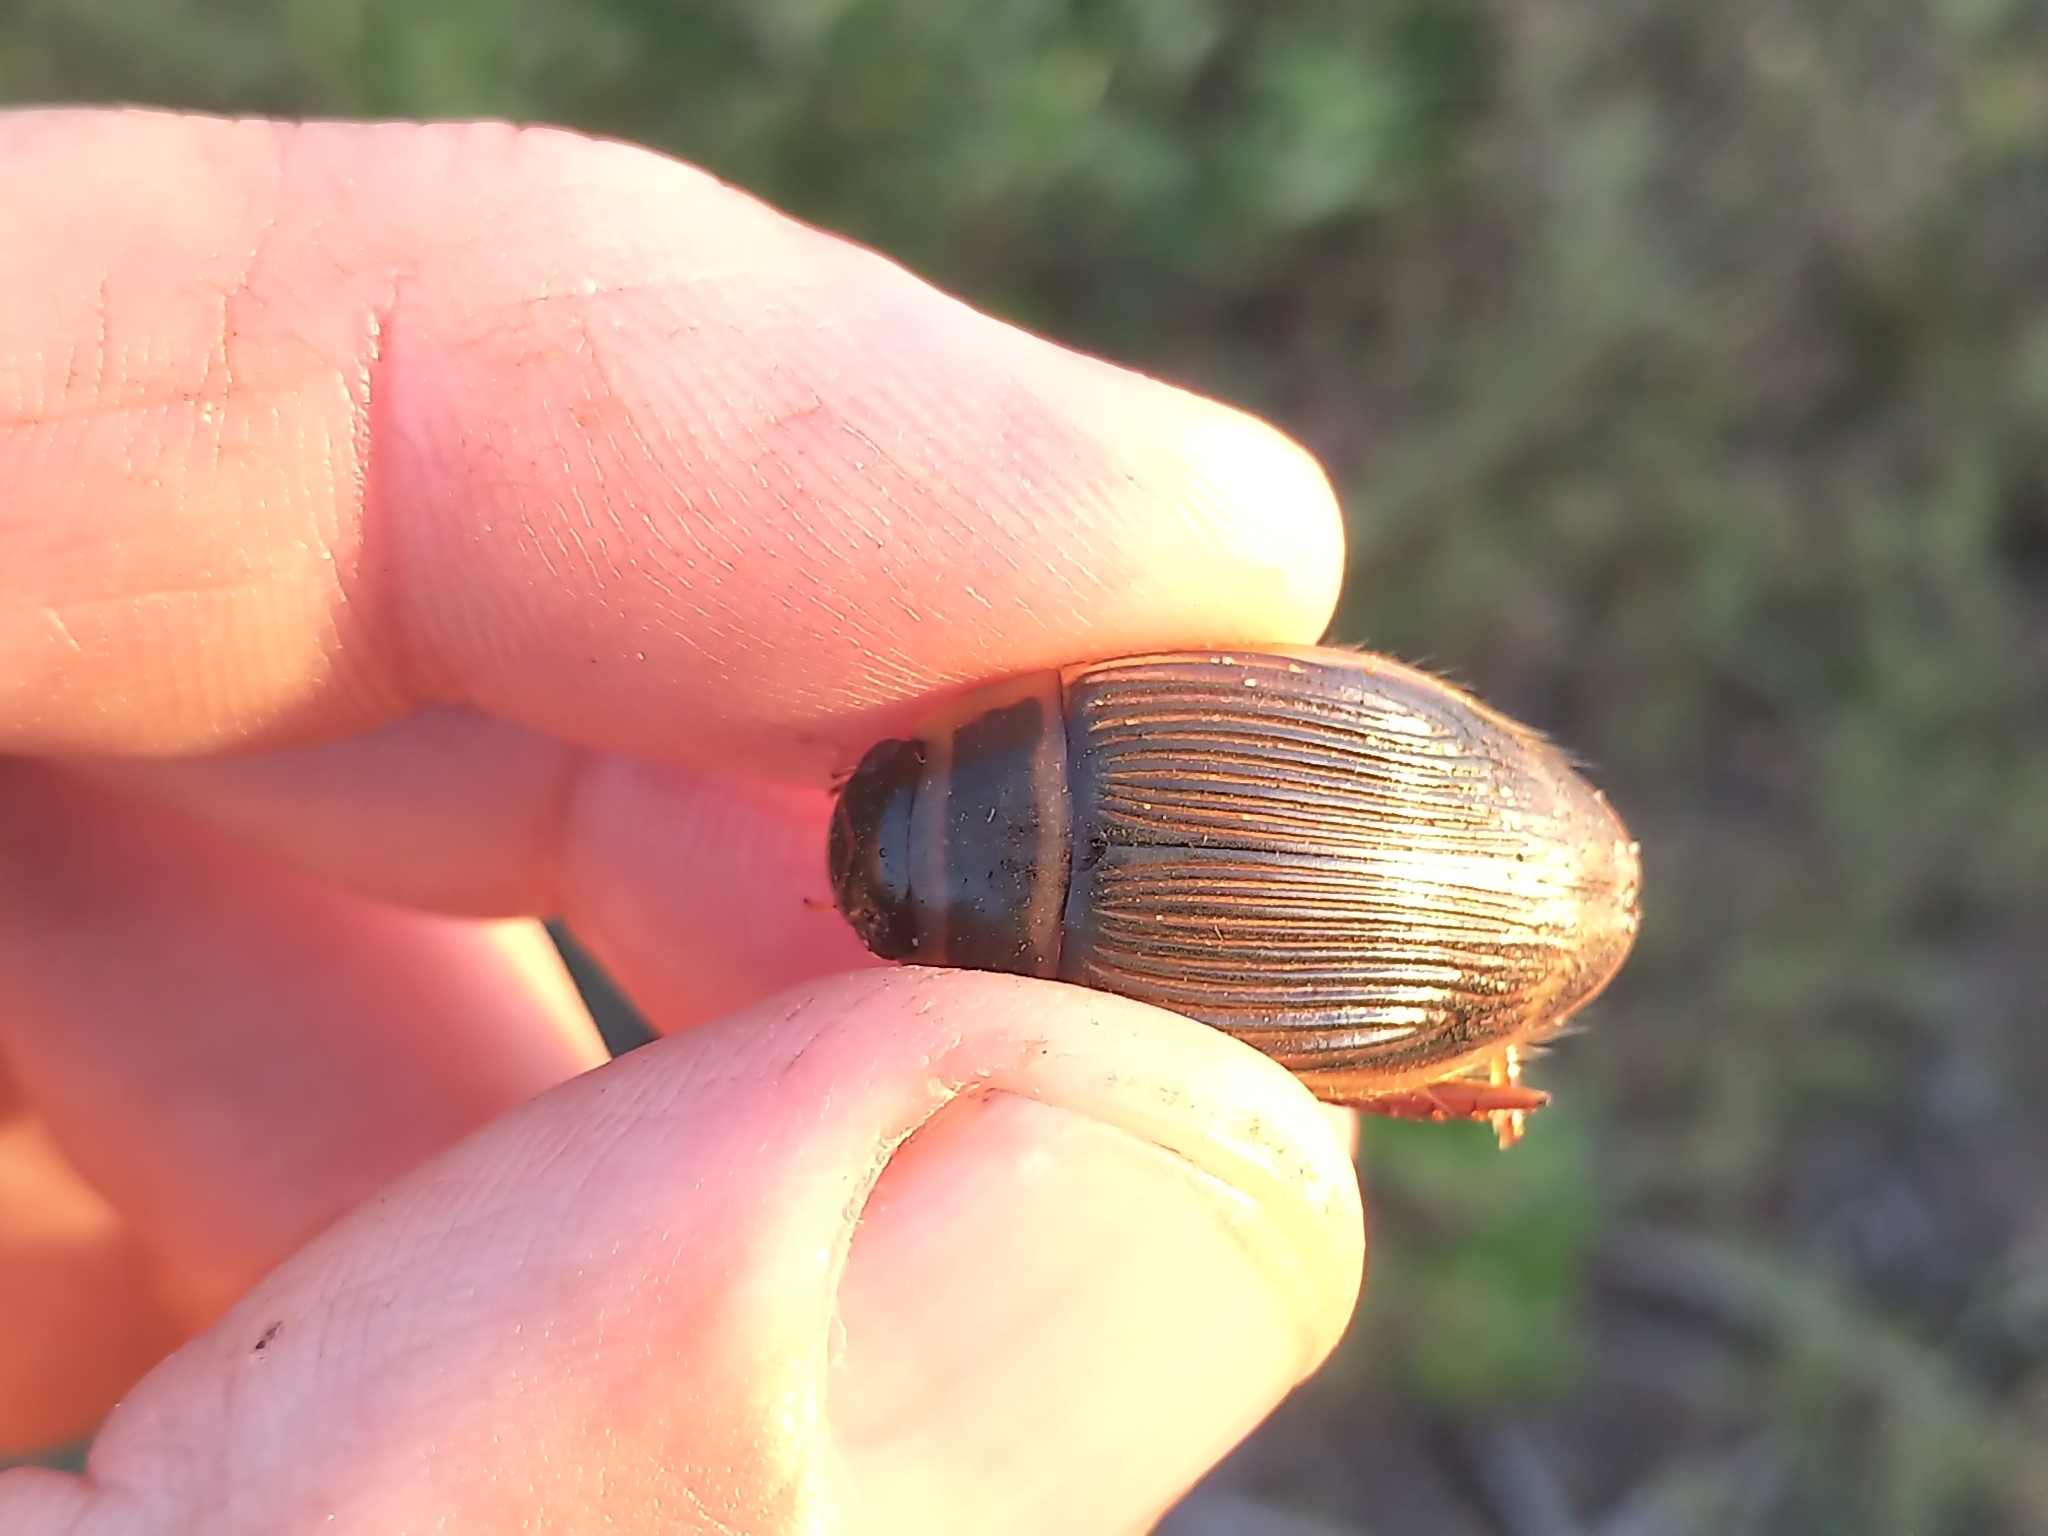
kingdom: Animalia
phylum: Arthropoda
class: Insecta
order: Coleoptera
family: Dytiscidae
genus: Dytiscus
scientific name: Dytiscus
